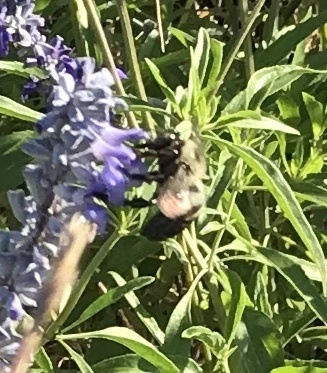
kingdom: Animalia
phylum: Arthropoda
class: Insecta
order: Hymenoptera
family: Apidae
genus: Xylocopa
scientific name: Xylocopa virginica
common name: Carpenter bee
